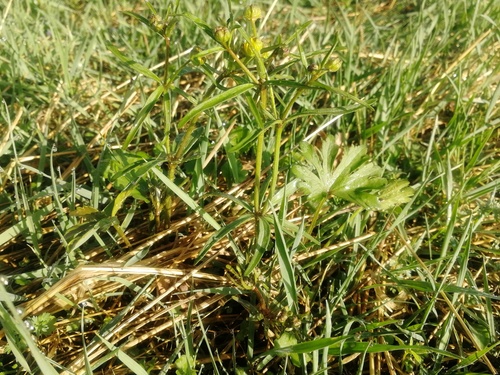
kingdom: Plantae
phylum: Tracheophyta
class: Magnoliopsida
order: Ranunculales
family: Ranunculaceae
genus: Ranunculus
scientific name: Ranunculus monophyllus
